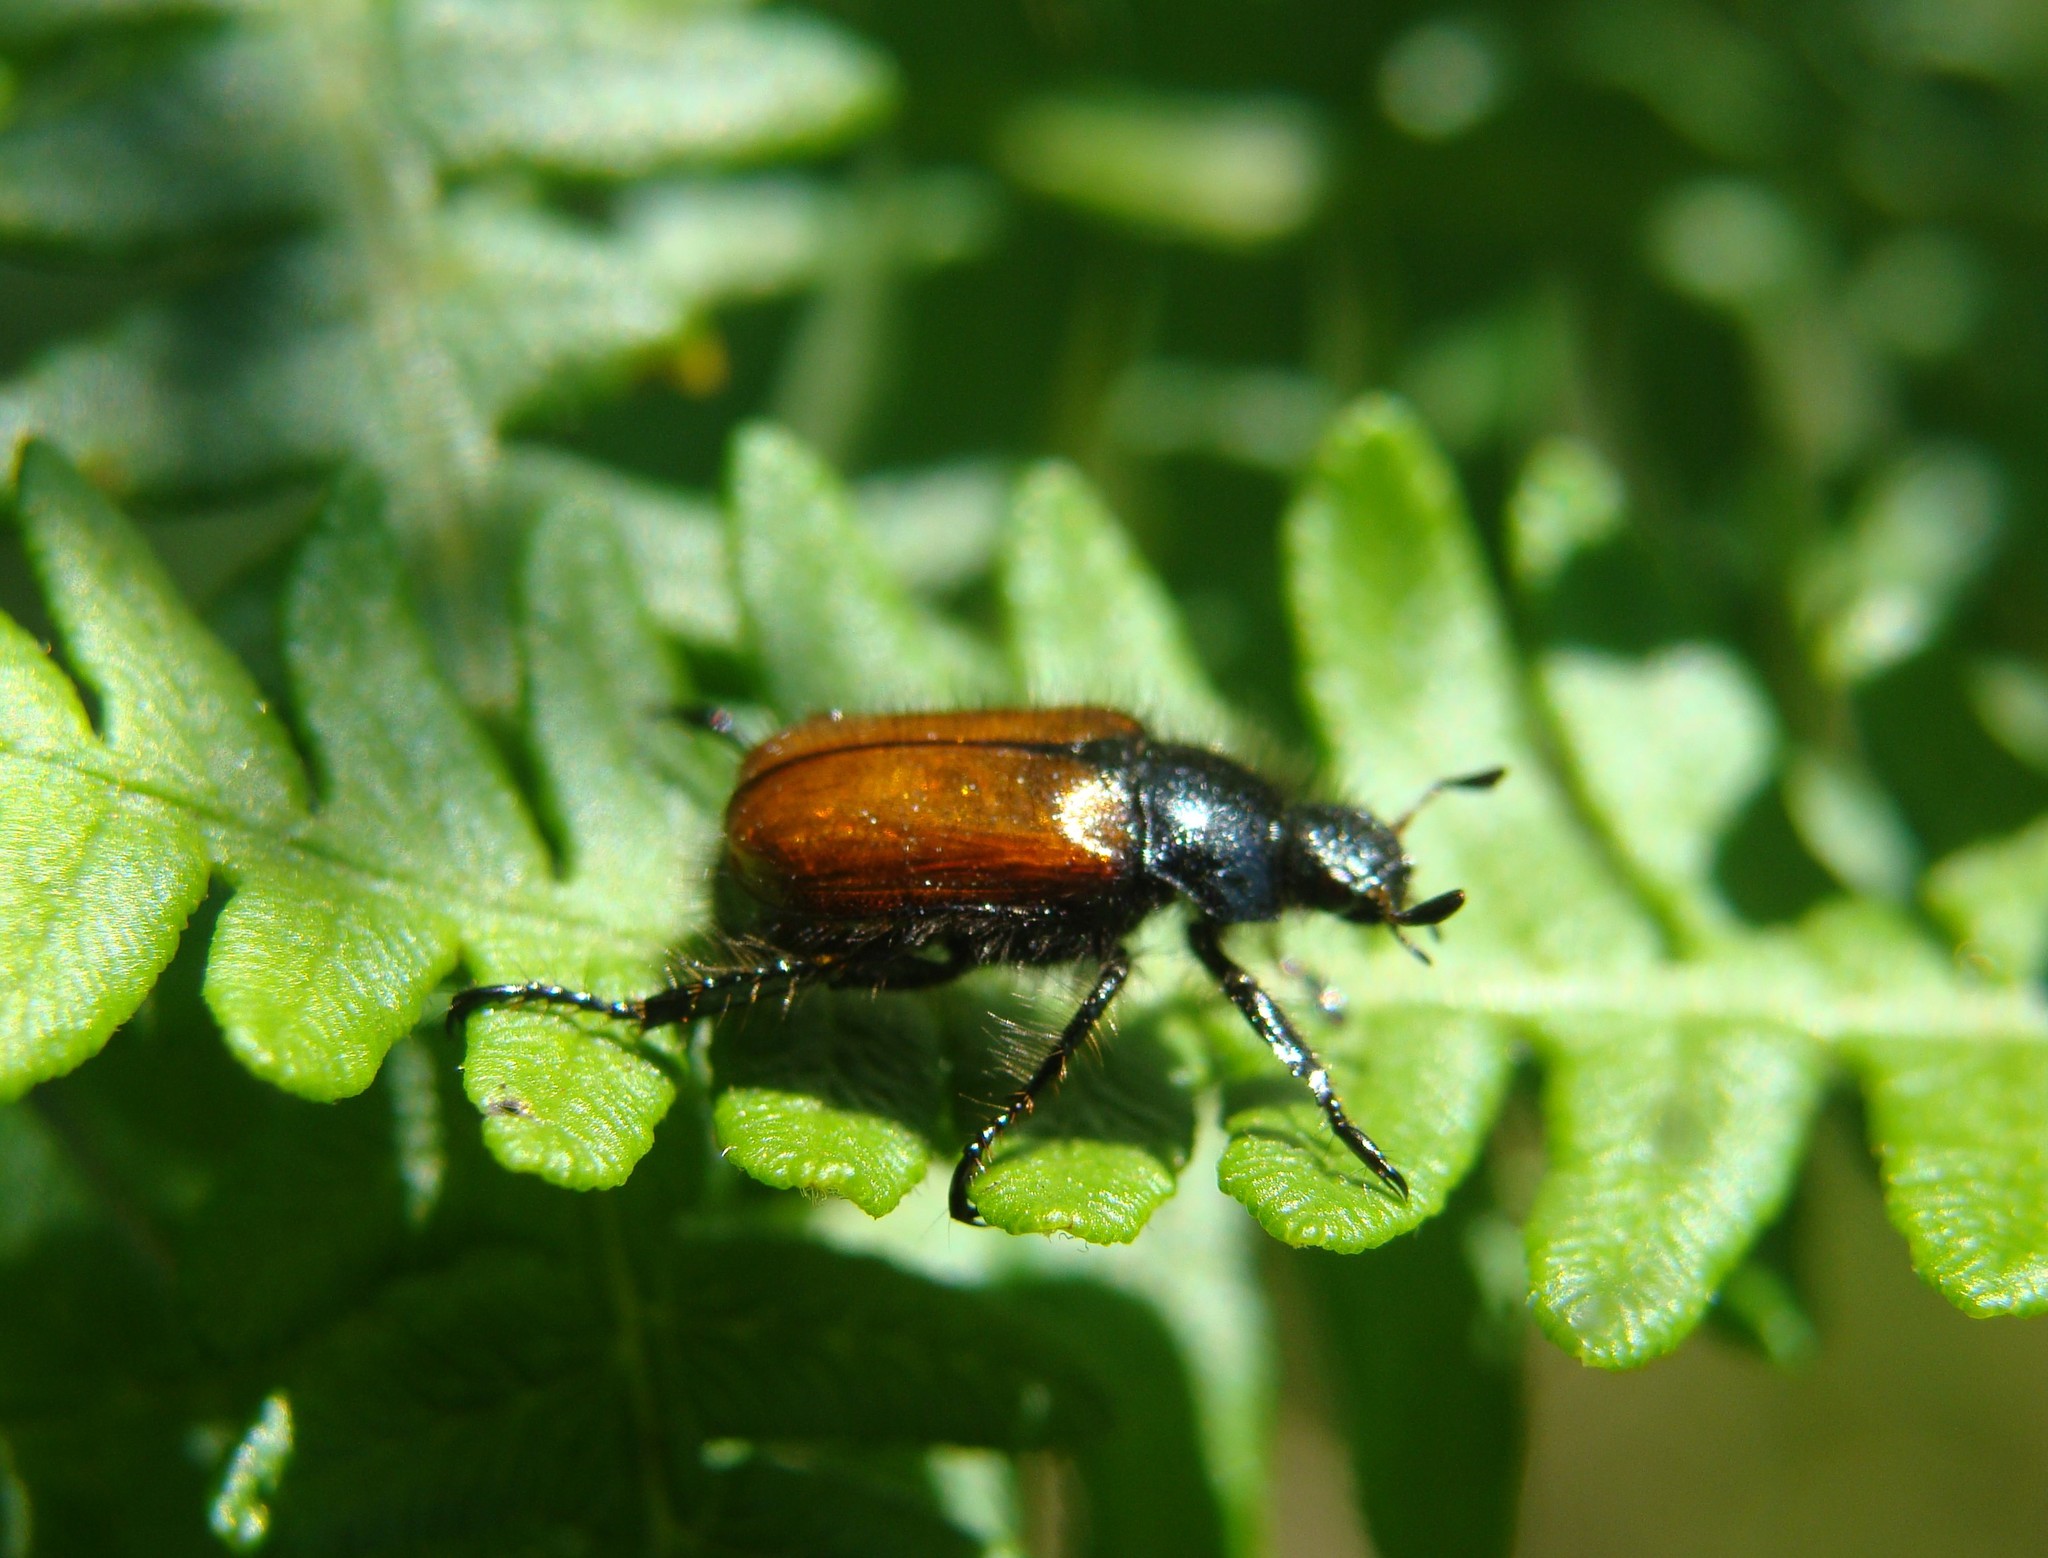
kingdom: Animalia
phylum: Arthropoda
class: Insecta
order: Coleoptera
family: Scarabaeidae
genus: Phyllopertha
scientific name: Phyllopertha horticola
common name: Garden chafer
